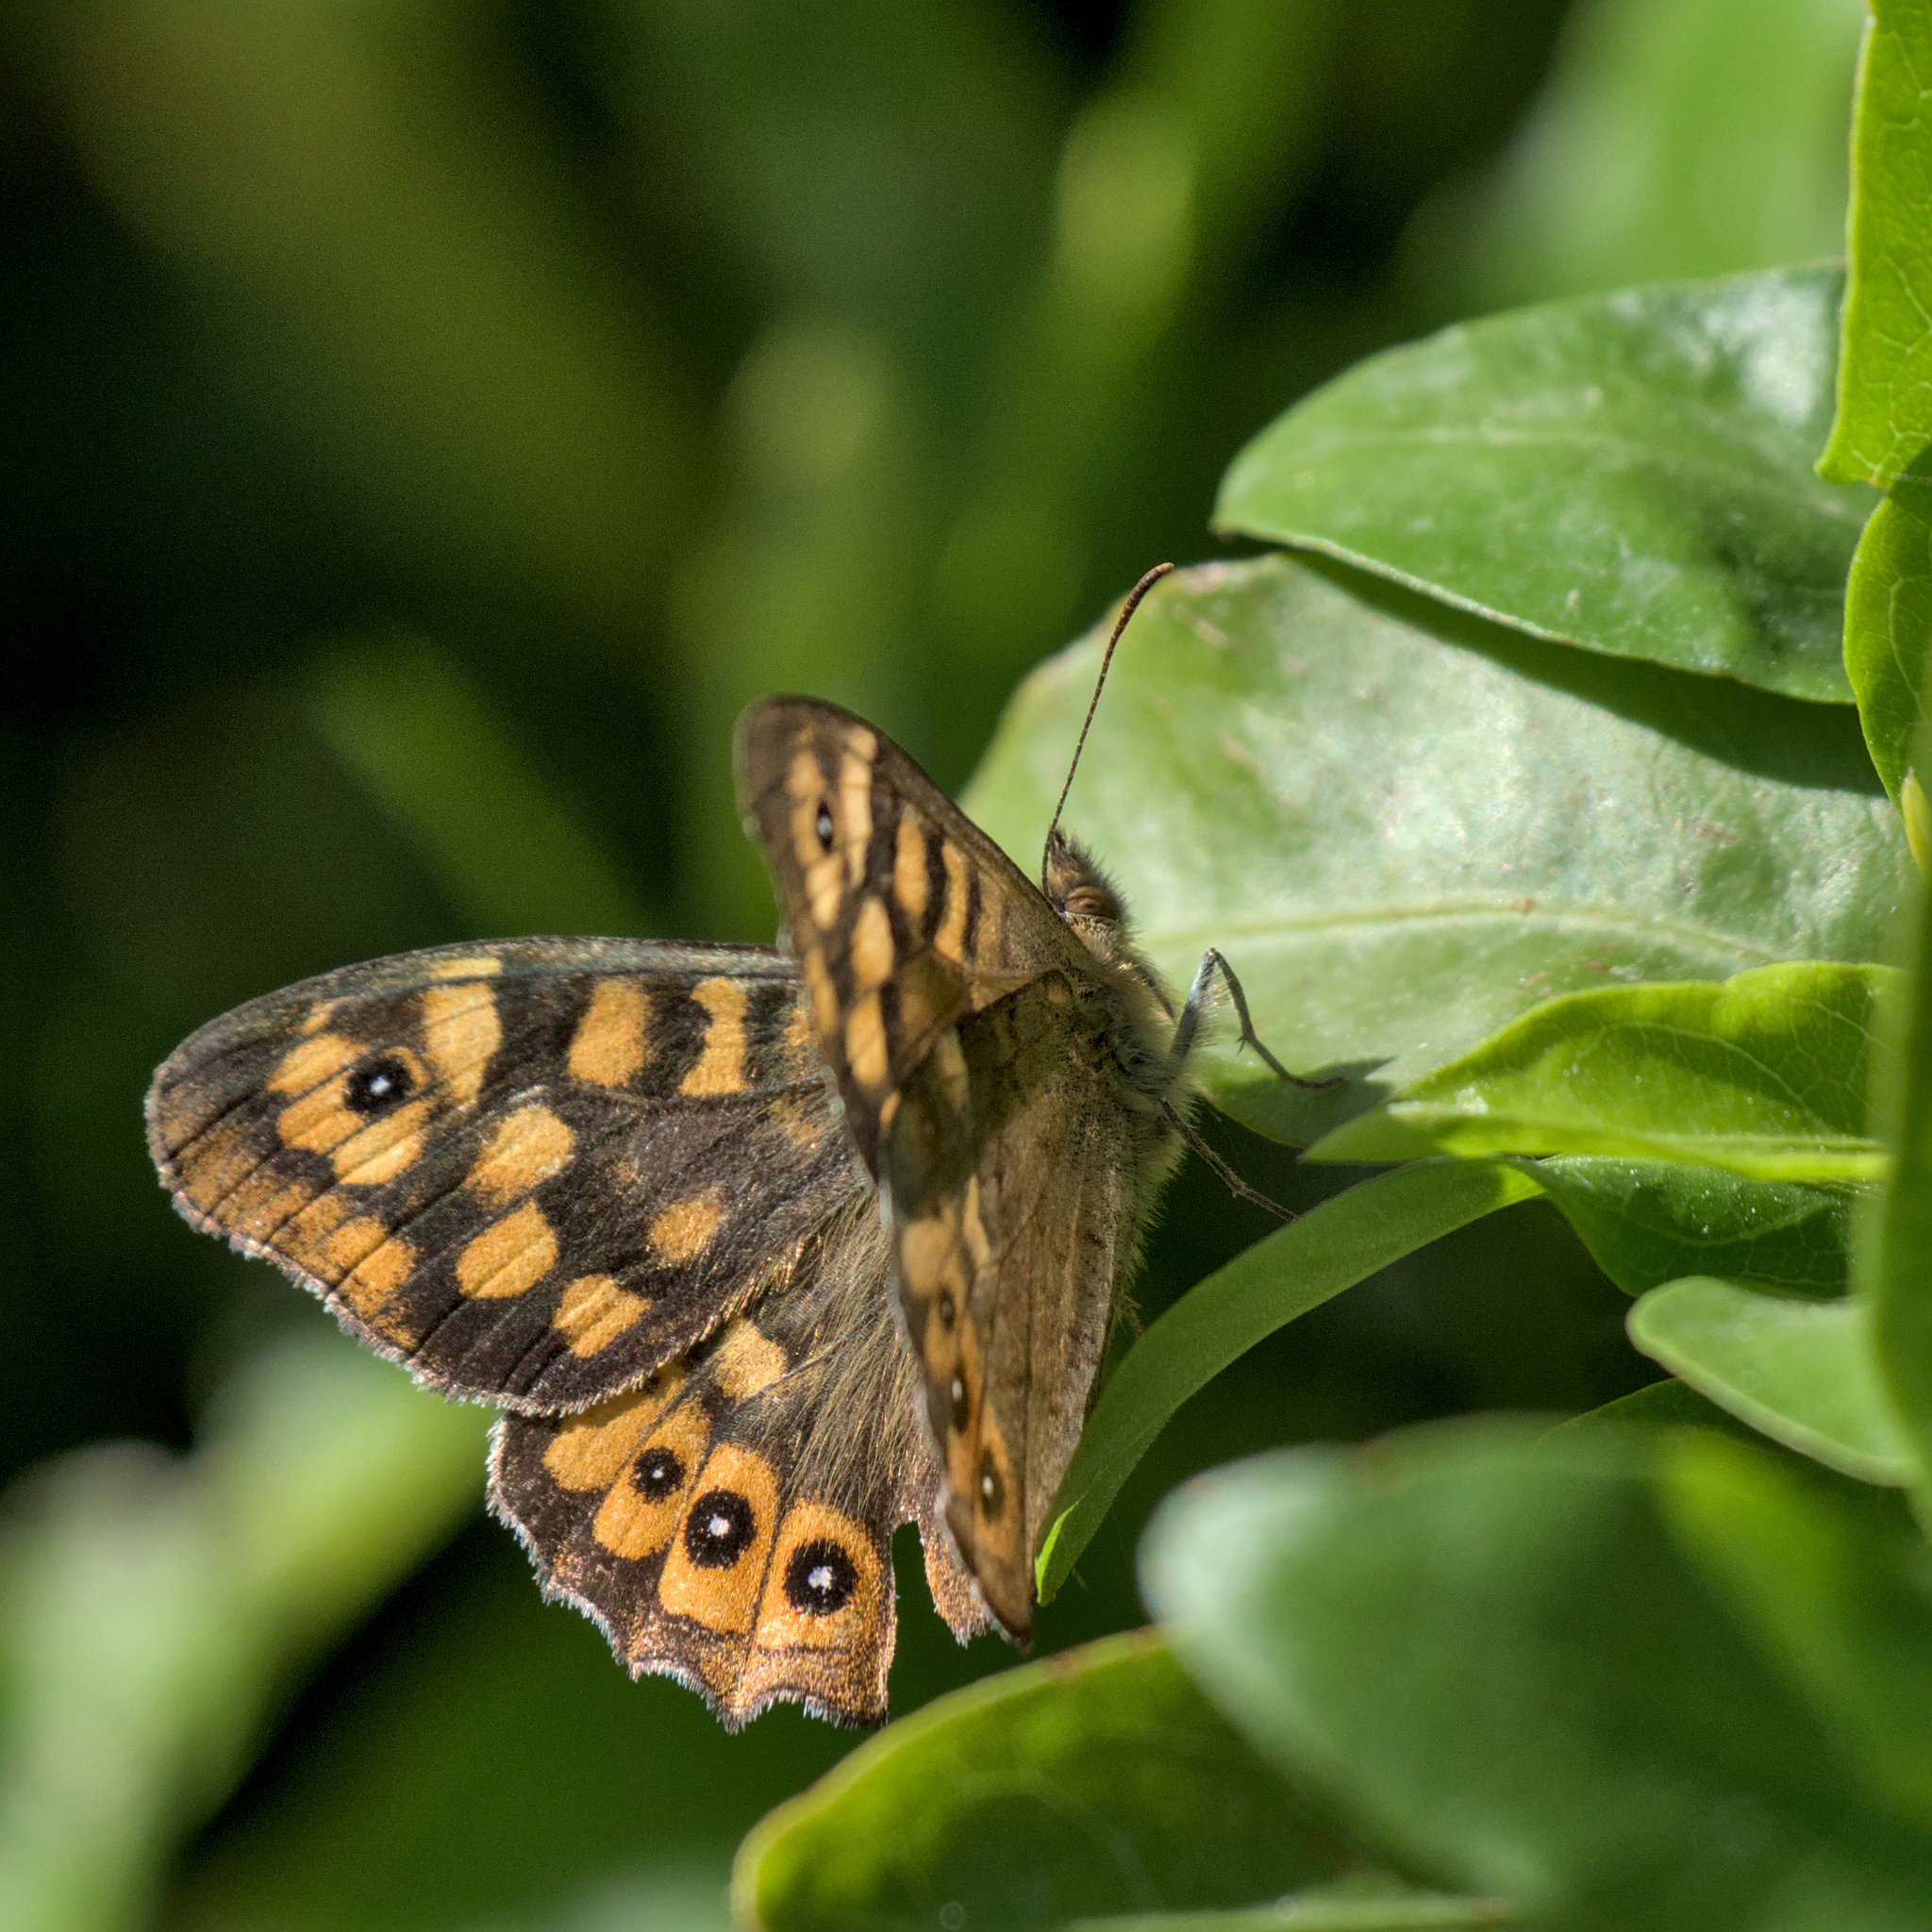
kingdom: Animalia
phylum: Arthropoda
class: Insecta
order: Lepidoptera
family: Nymphalidae
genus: Pararge
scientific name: Pararge aegeria
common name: Speckled wood
